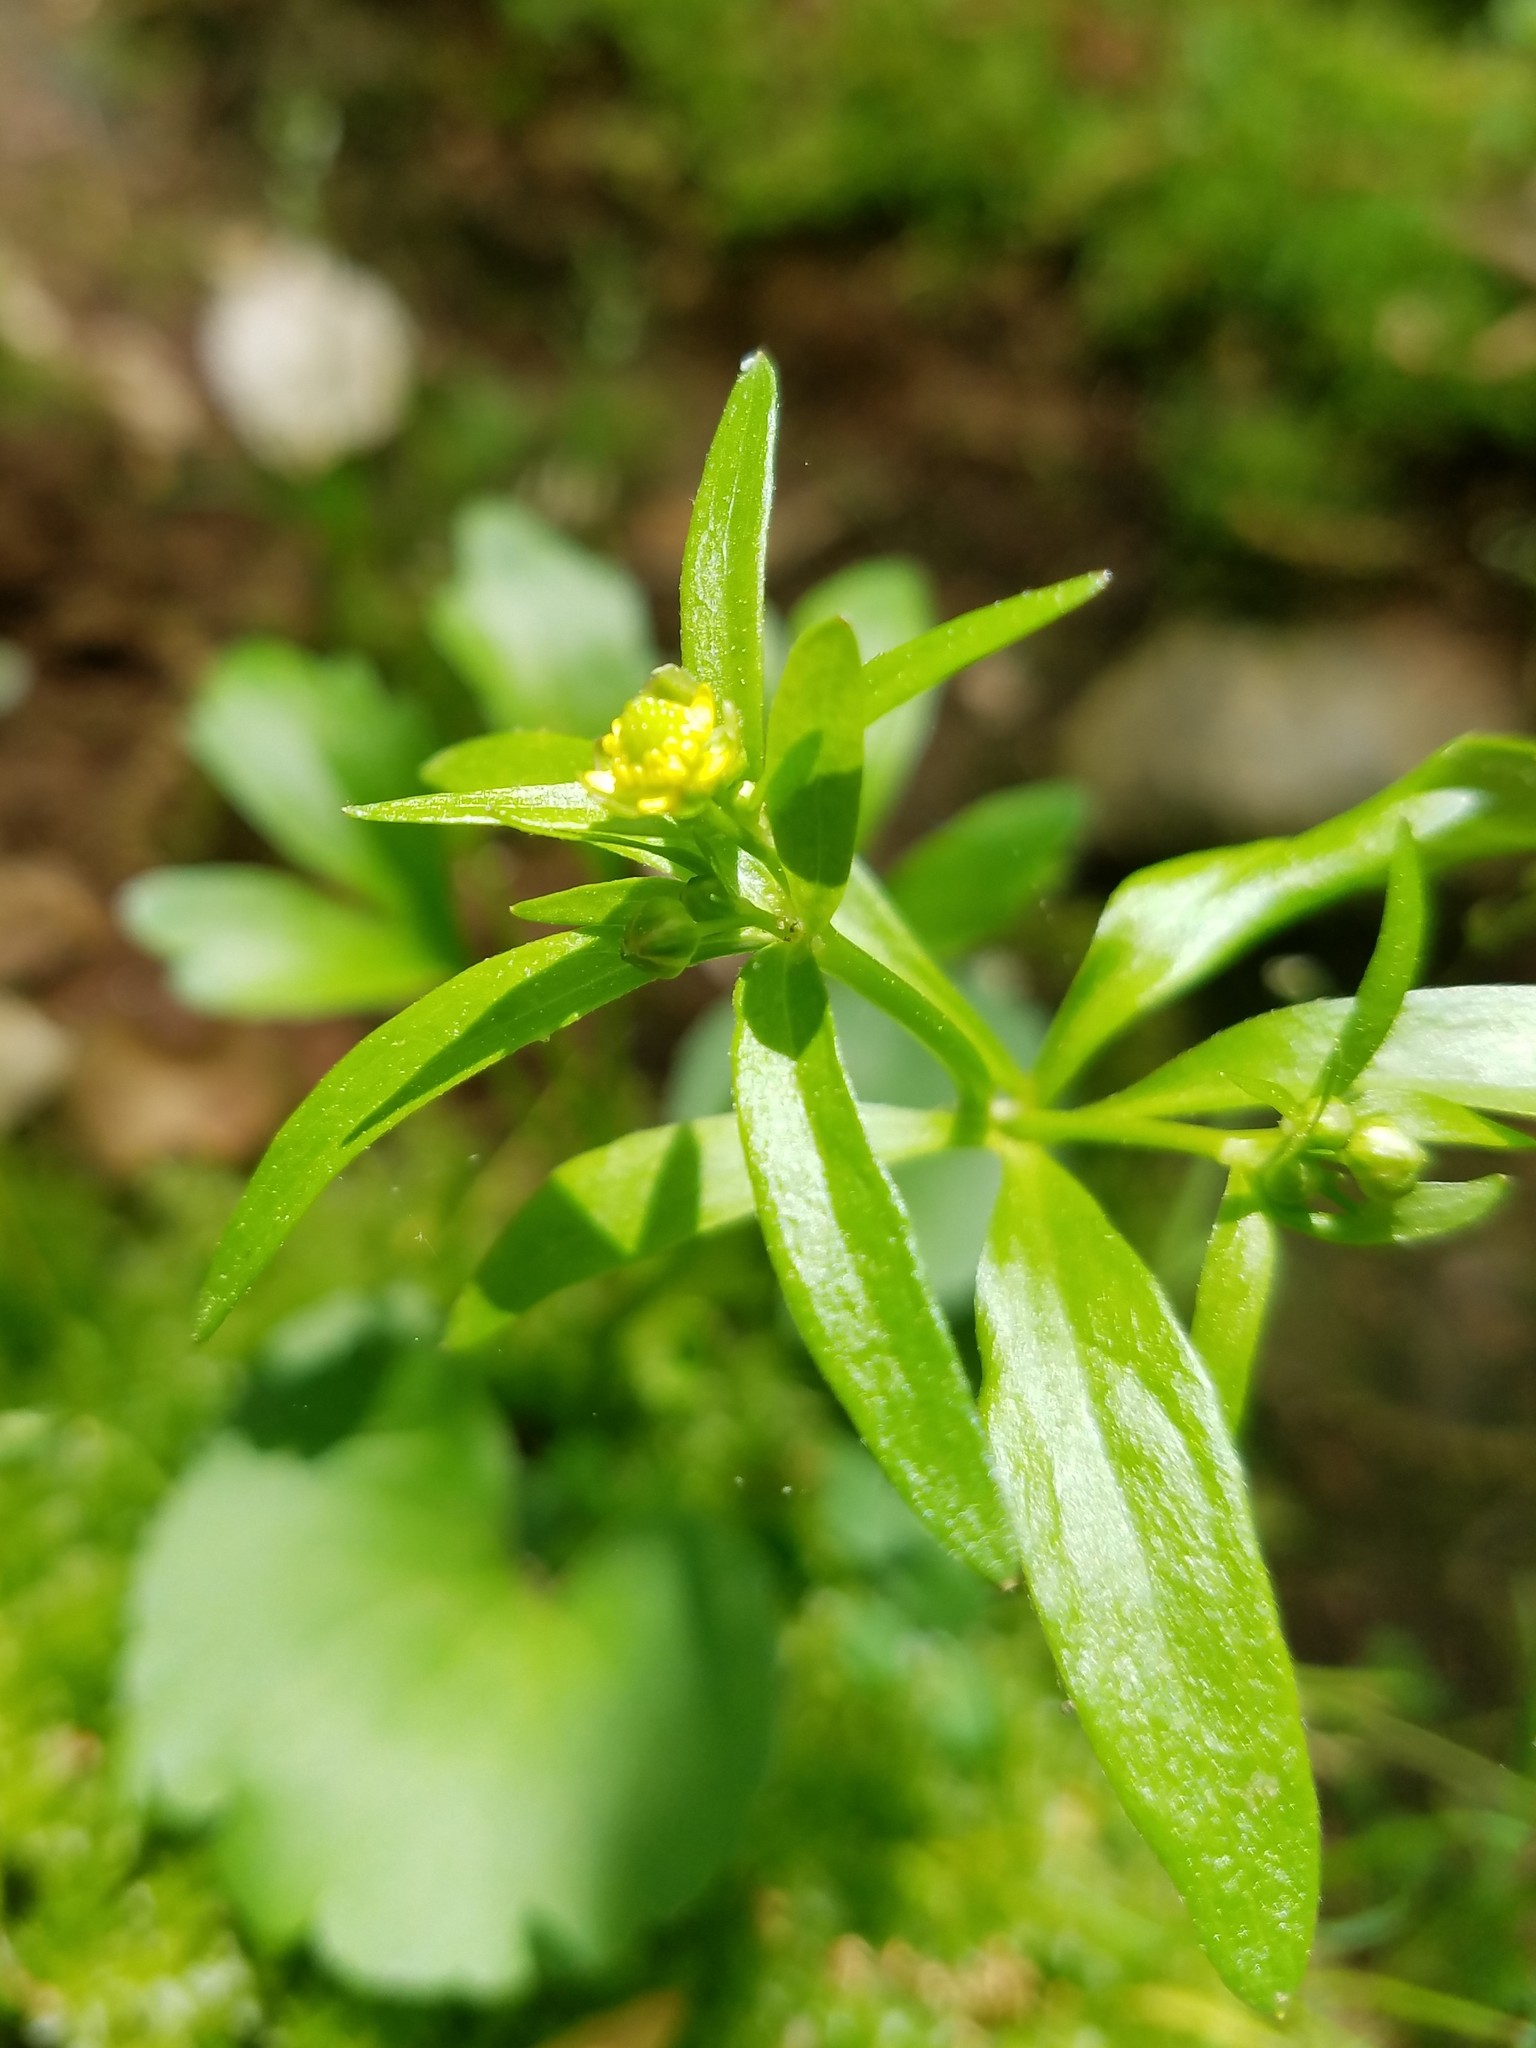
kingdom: Plantae
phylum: Tracheophyta
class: Magnoliopsida
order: Ranunculales
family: Ranunculaceae
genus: Ranunculus
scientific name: Ranunculus abortivus
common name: Early wood buttercup
